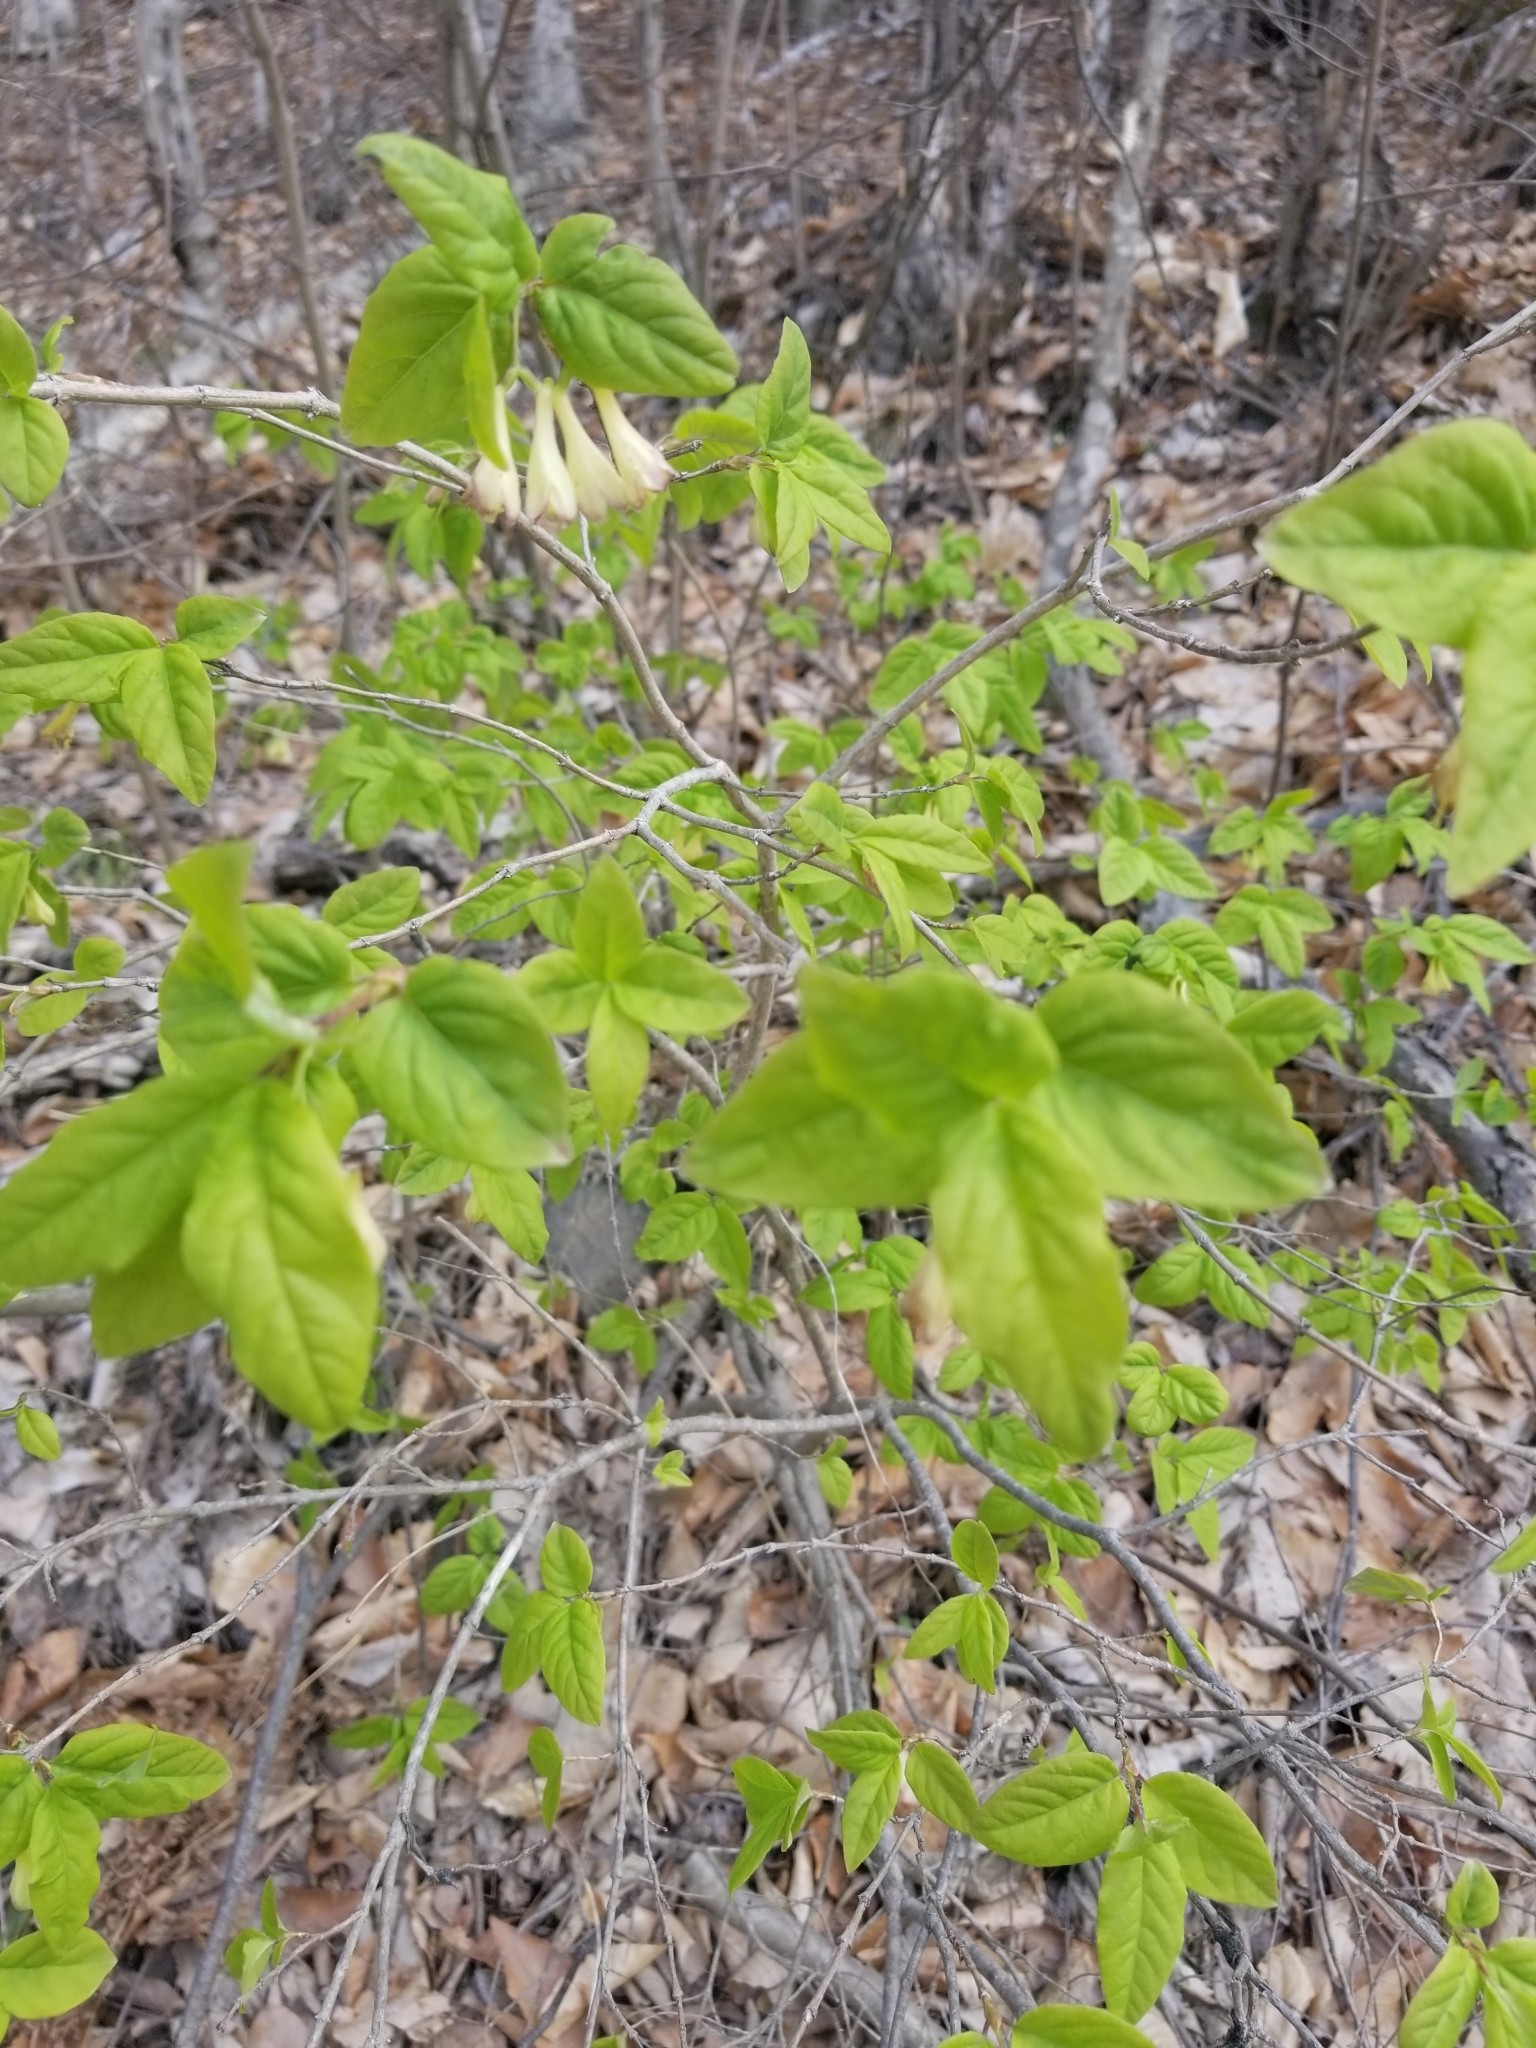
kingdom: Plantae
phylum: Tracheophyta
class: Magnoliopsida
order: Dipsacales
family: Caprifoliaceae
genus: Lonicera
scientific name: Lonicera canadensis
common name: American fly-honeysuckle
